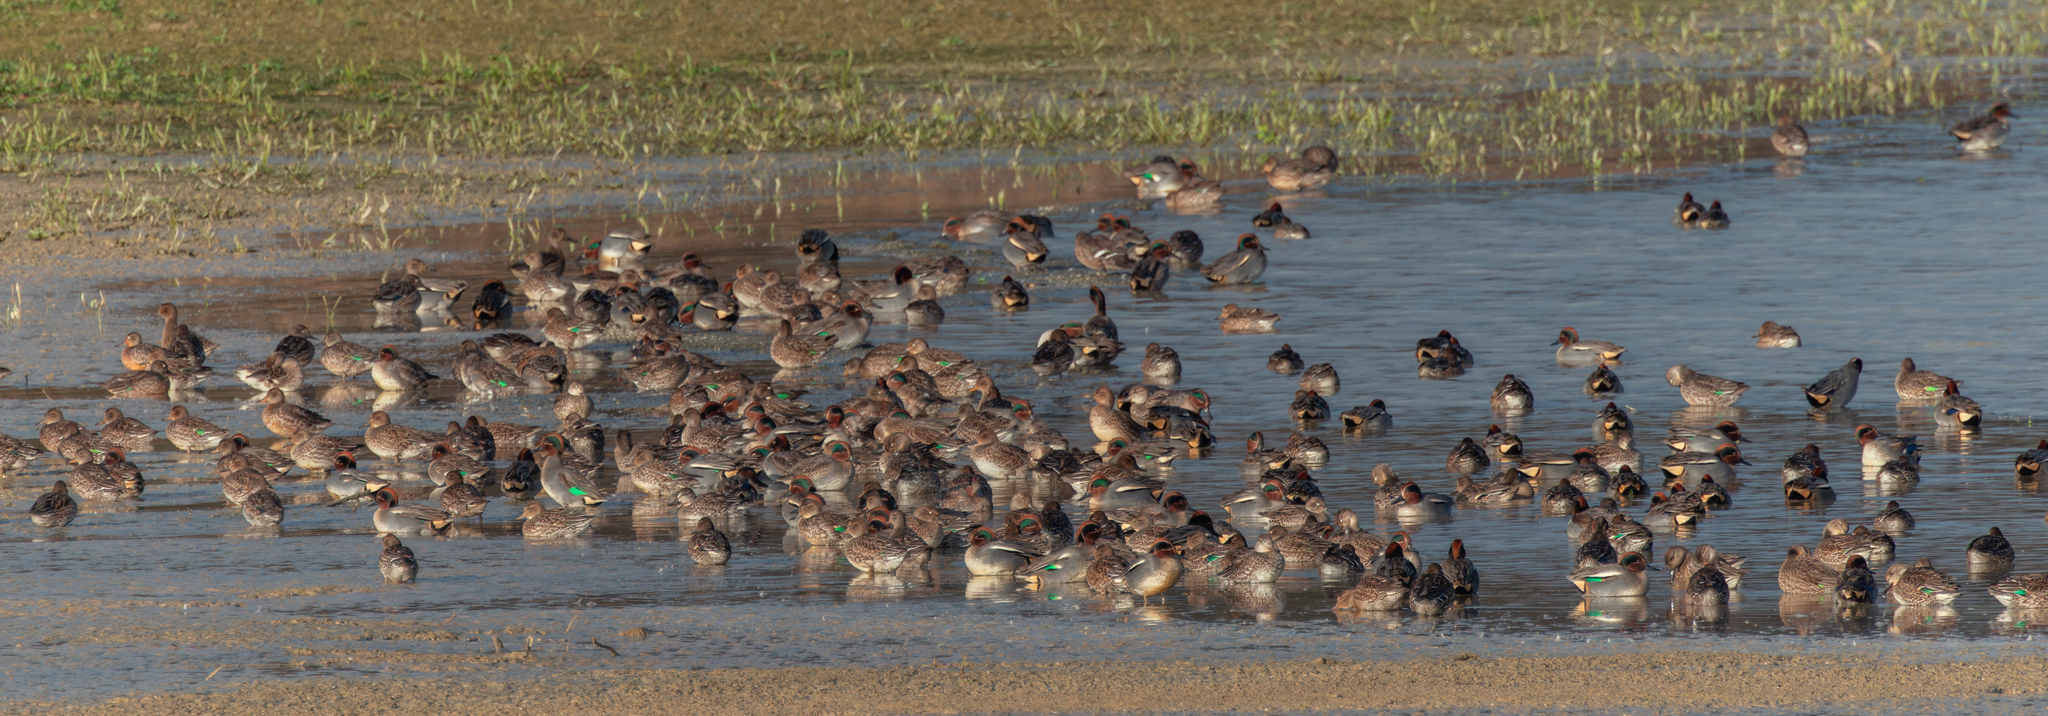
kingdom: Animalia
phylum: Chordata
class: Aves
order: Anseriformes
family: Anatidae
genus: Anas
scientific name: Anas crecca
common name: Eurasian teal
